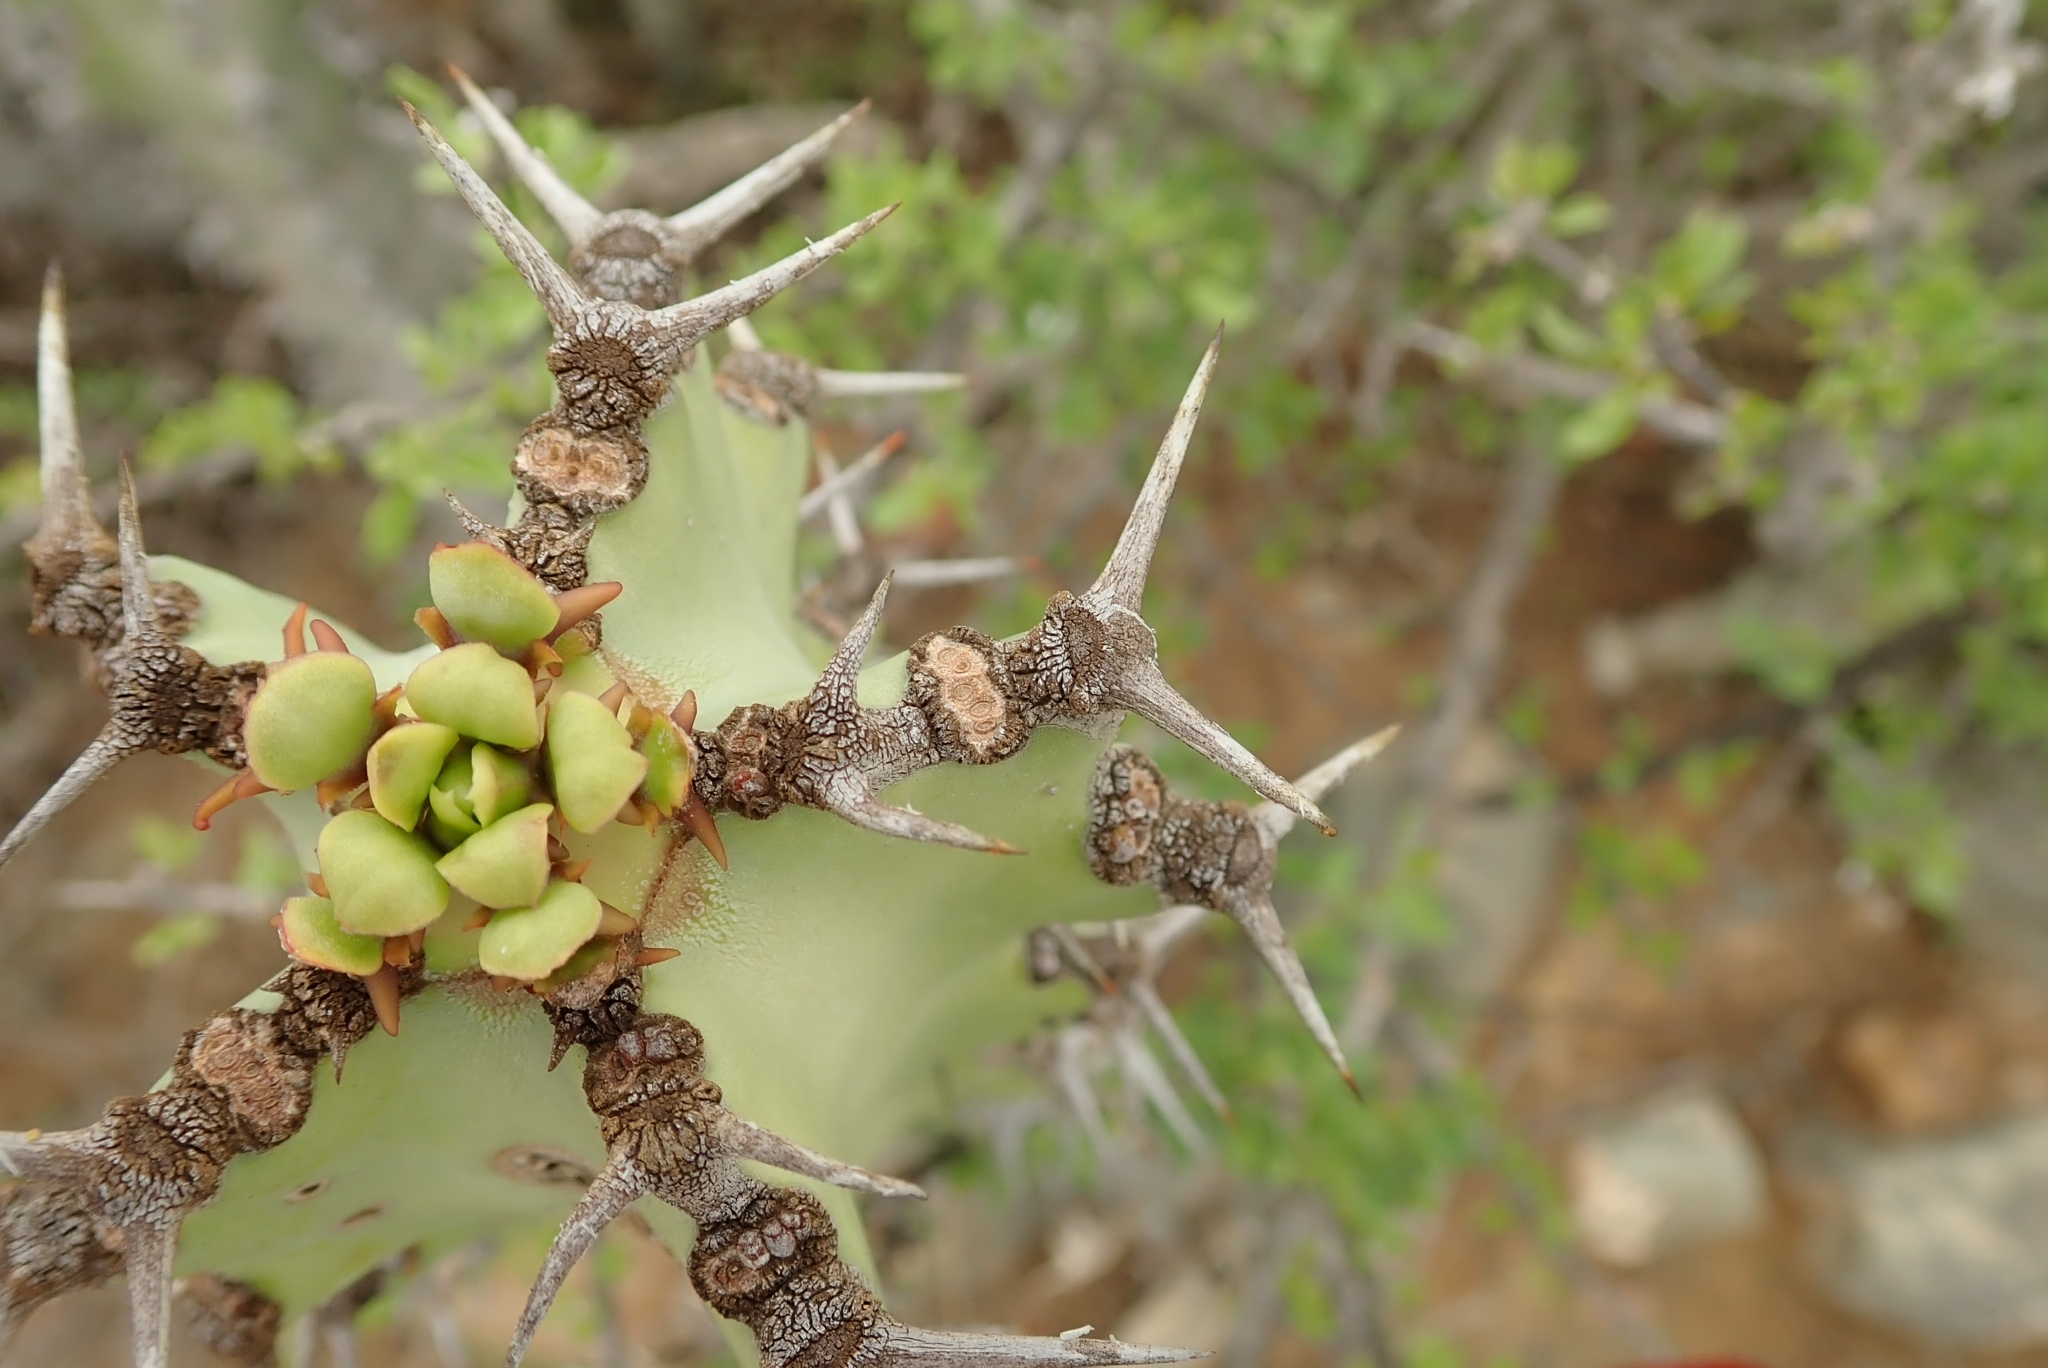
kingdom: Plantae
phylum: Tracheophyta
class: Magnoliopsida
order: Malpighiales
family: Euphorbiaceae
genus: Euphorbia
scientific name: Euphorbia radyeri
